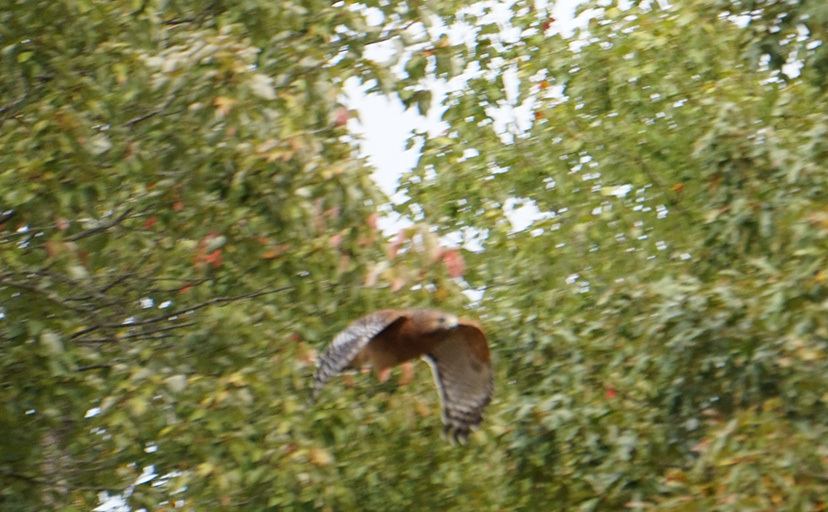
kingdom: Animalia
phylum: Chordata
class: Aves
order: Accipitriformes
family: Accipitridae
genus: Buteo
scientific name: Buteo lineatus
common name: Red-shouldered hawk
